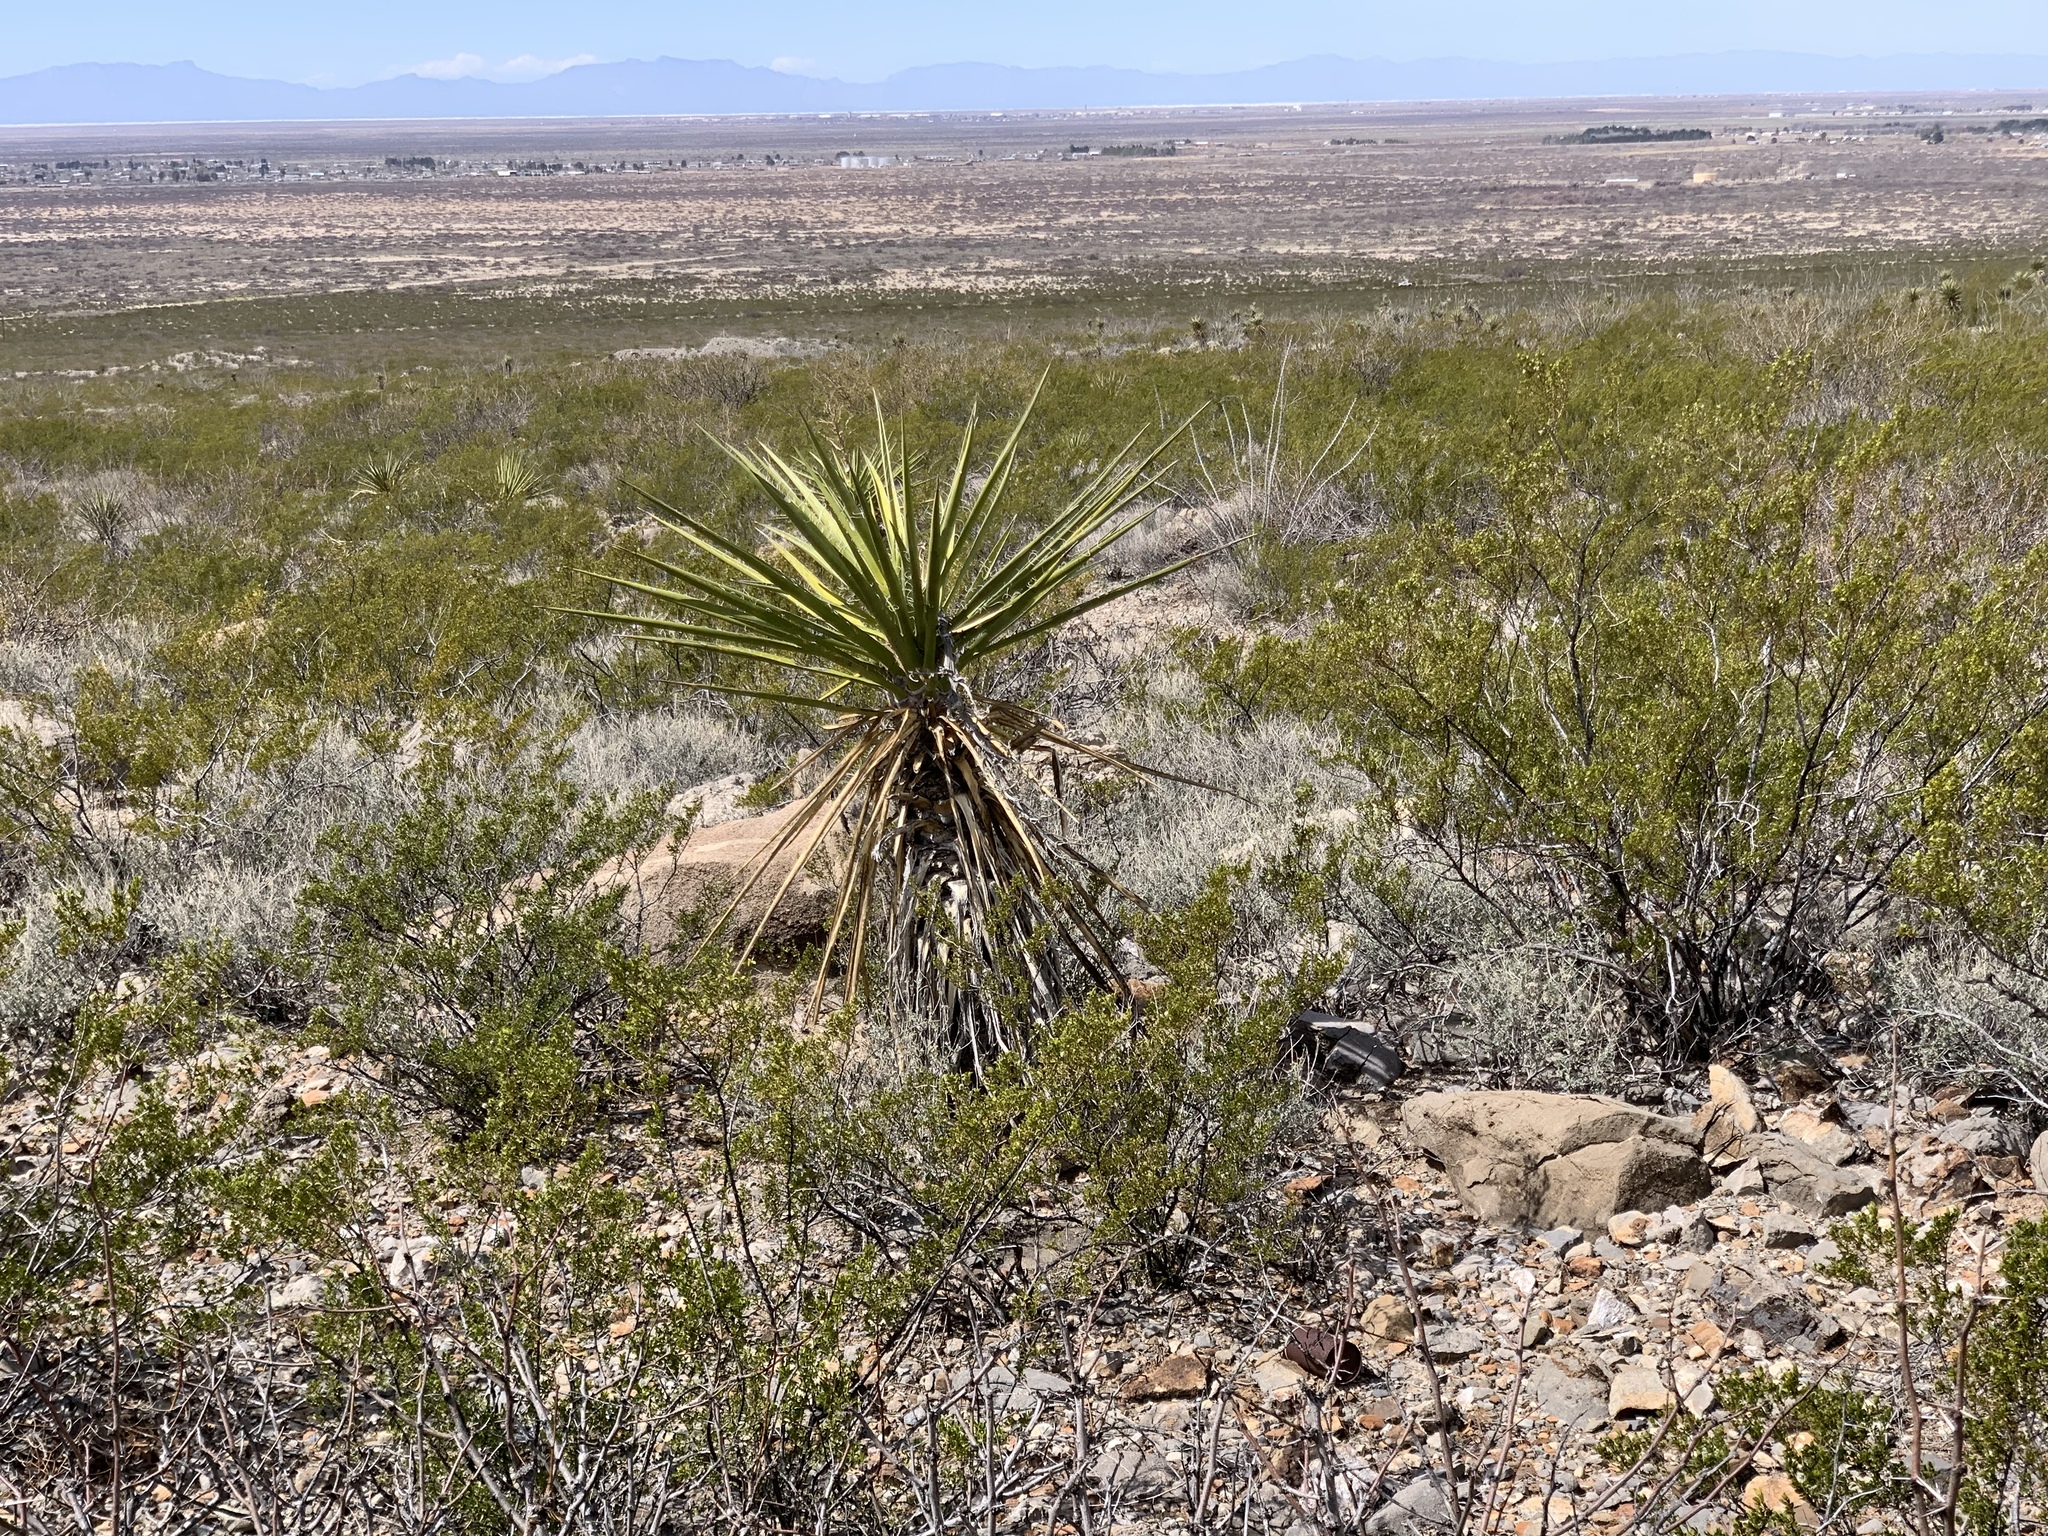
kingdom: Plantae
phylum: Tracheophyta
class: Liliopsida
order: Asparagales
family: Asparagaceae
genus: Yucca
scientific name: Yucca treculiana
